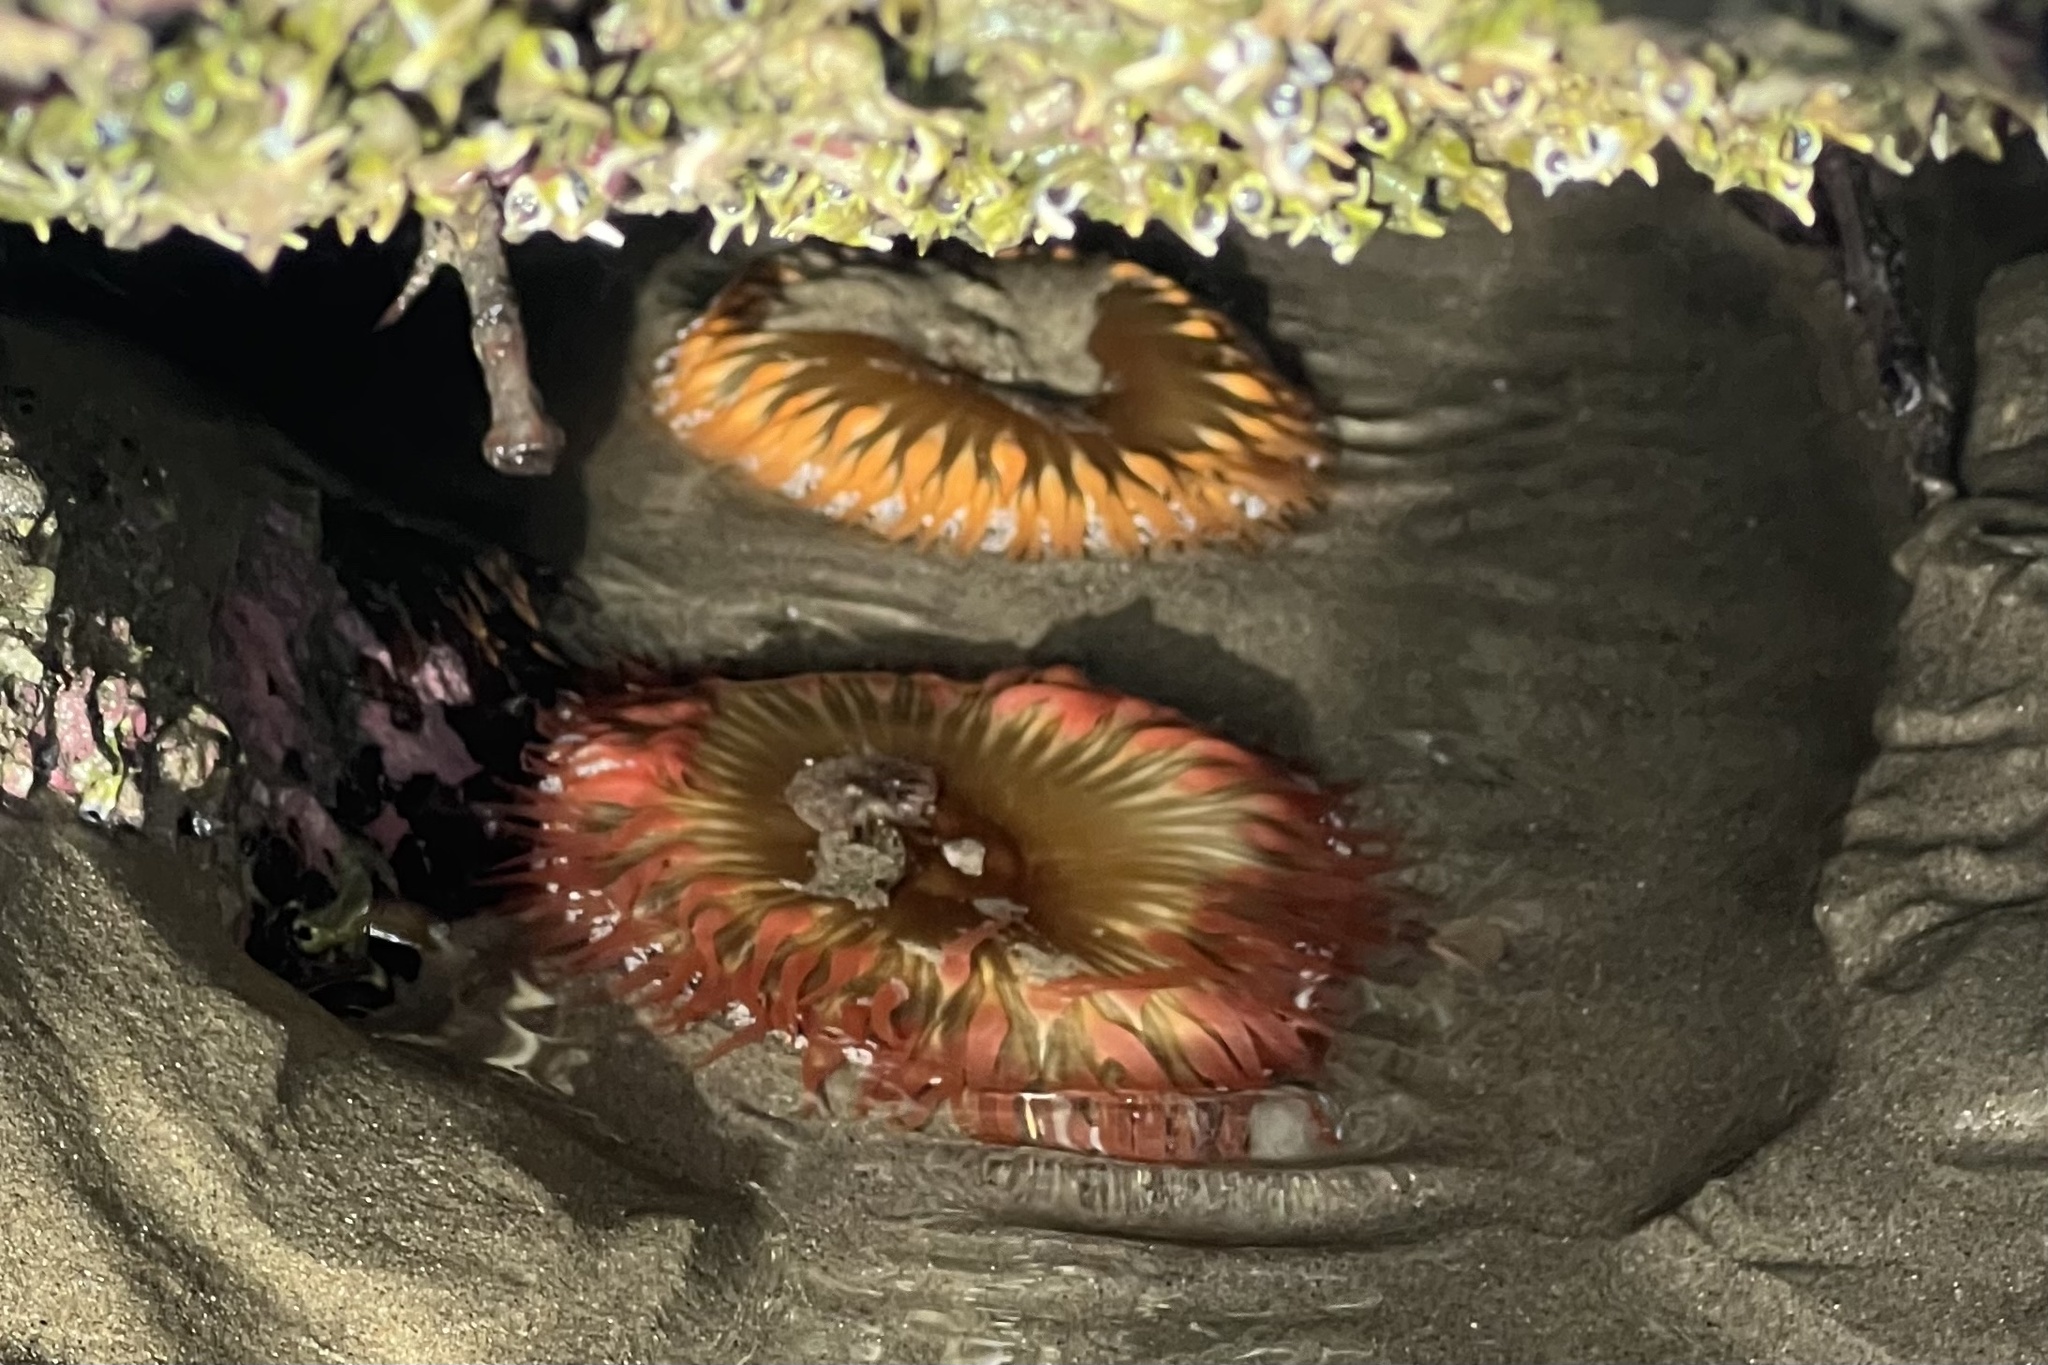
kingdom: Animalia
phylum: Cnidaria
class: Anthozoa
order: Actiniaria
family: Actiniidae
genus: Oulactis
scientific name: Oulactis magna
